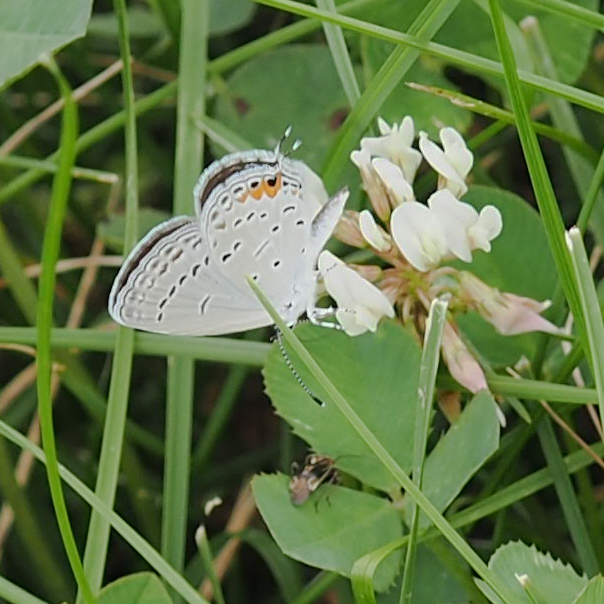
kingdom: Animalia
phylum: Arthropoda
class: Insecta
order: Lepidoptera
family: Lycaenidae
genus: Elkalyce
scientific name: Elkalyce comyntas
